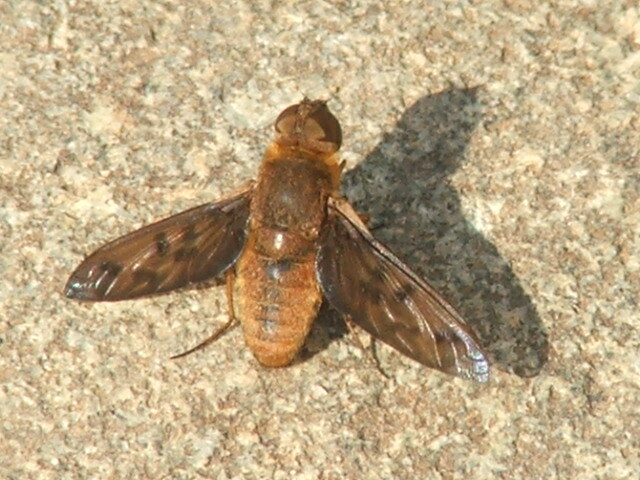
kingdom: Animalia
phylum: Arthropoda
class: Insecta
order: Diptera
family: Bombyliidae
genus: Euligyra
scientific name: Euligyra
